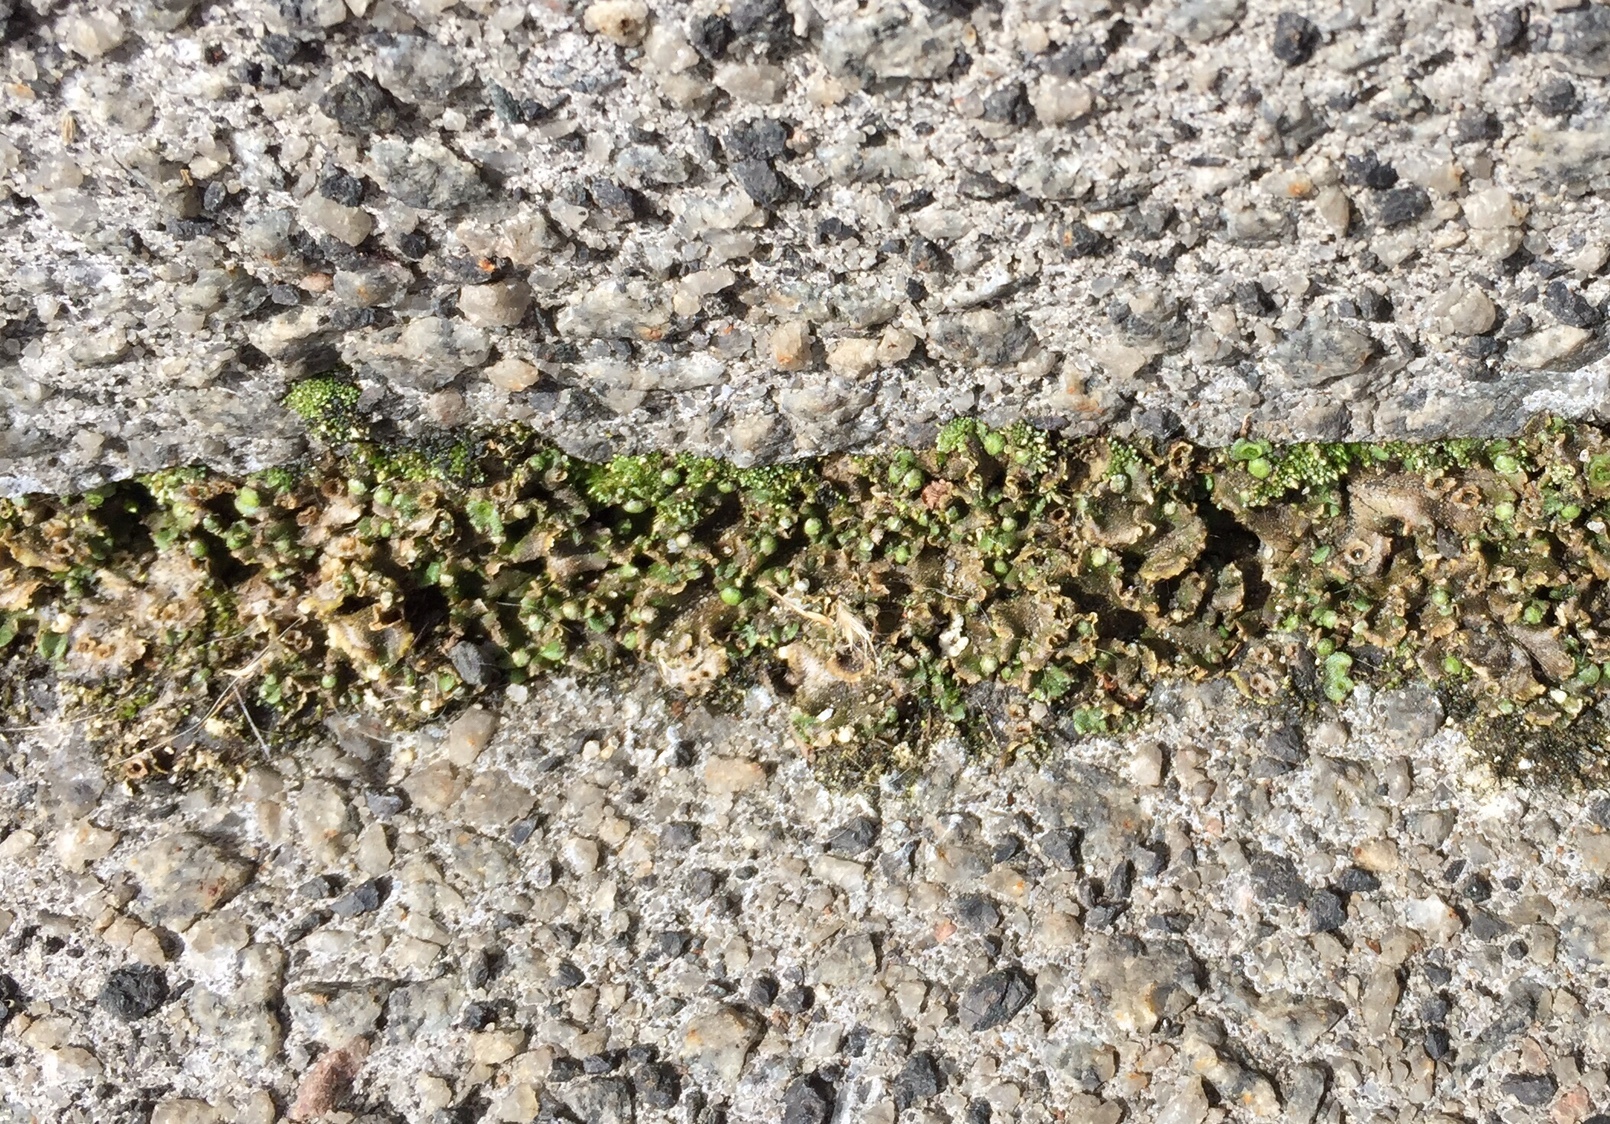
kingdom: Plantae
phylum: Marchantiophyta
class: Marchantiopsida
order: Marchantiales
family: Marchantiaceae
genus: Marchantia
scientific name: Marchantia polymorpha
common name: Common liverwort
